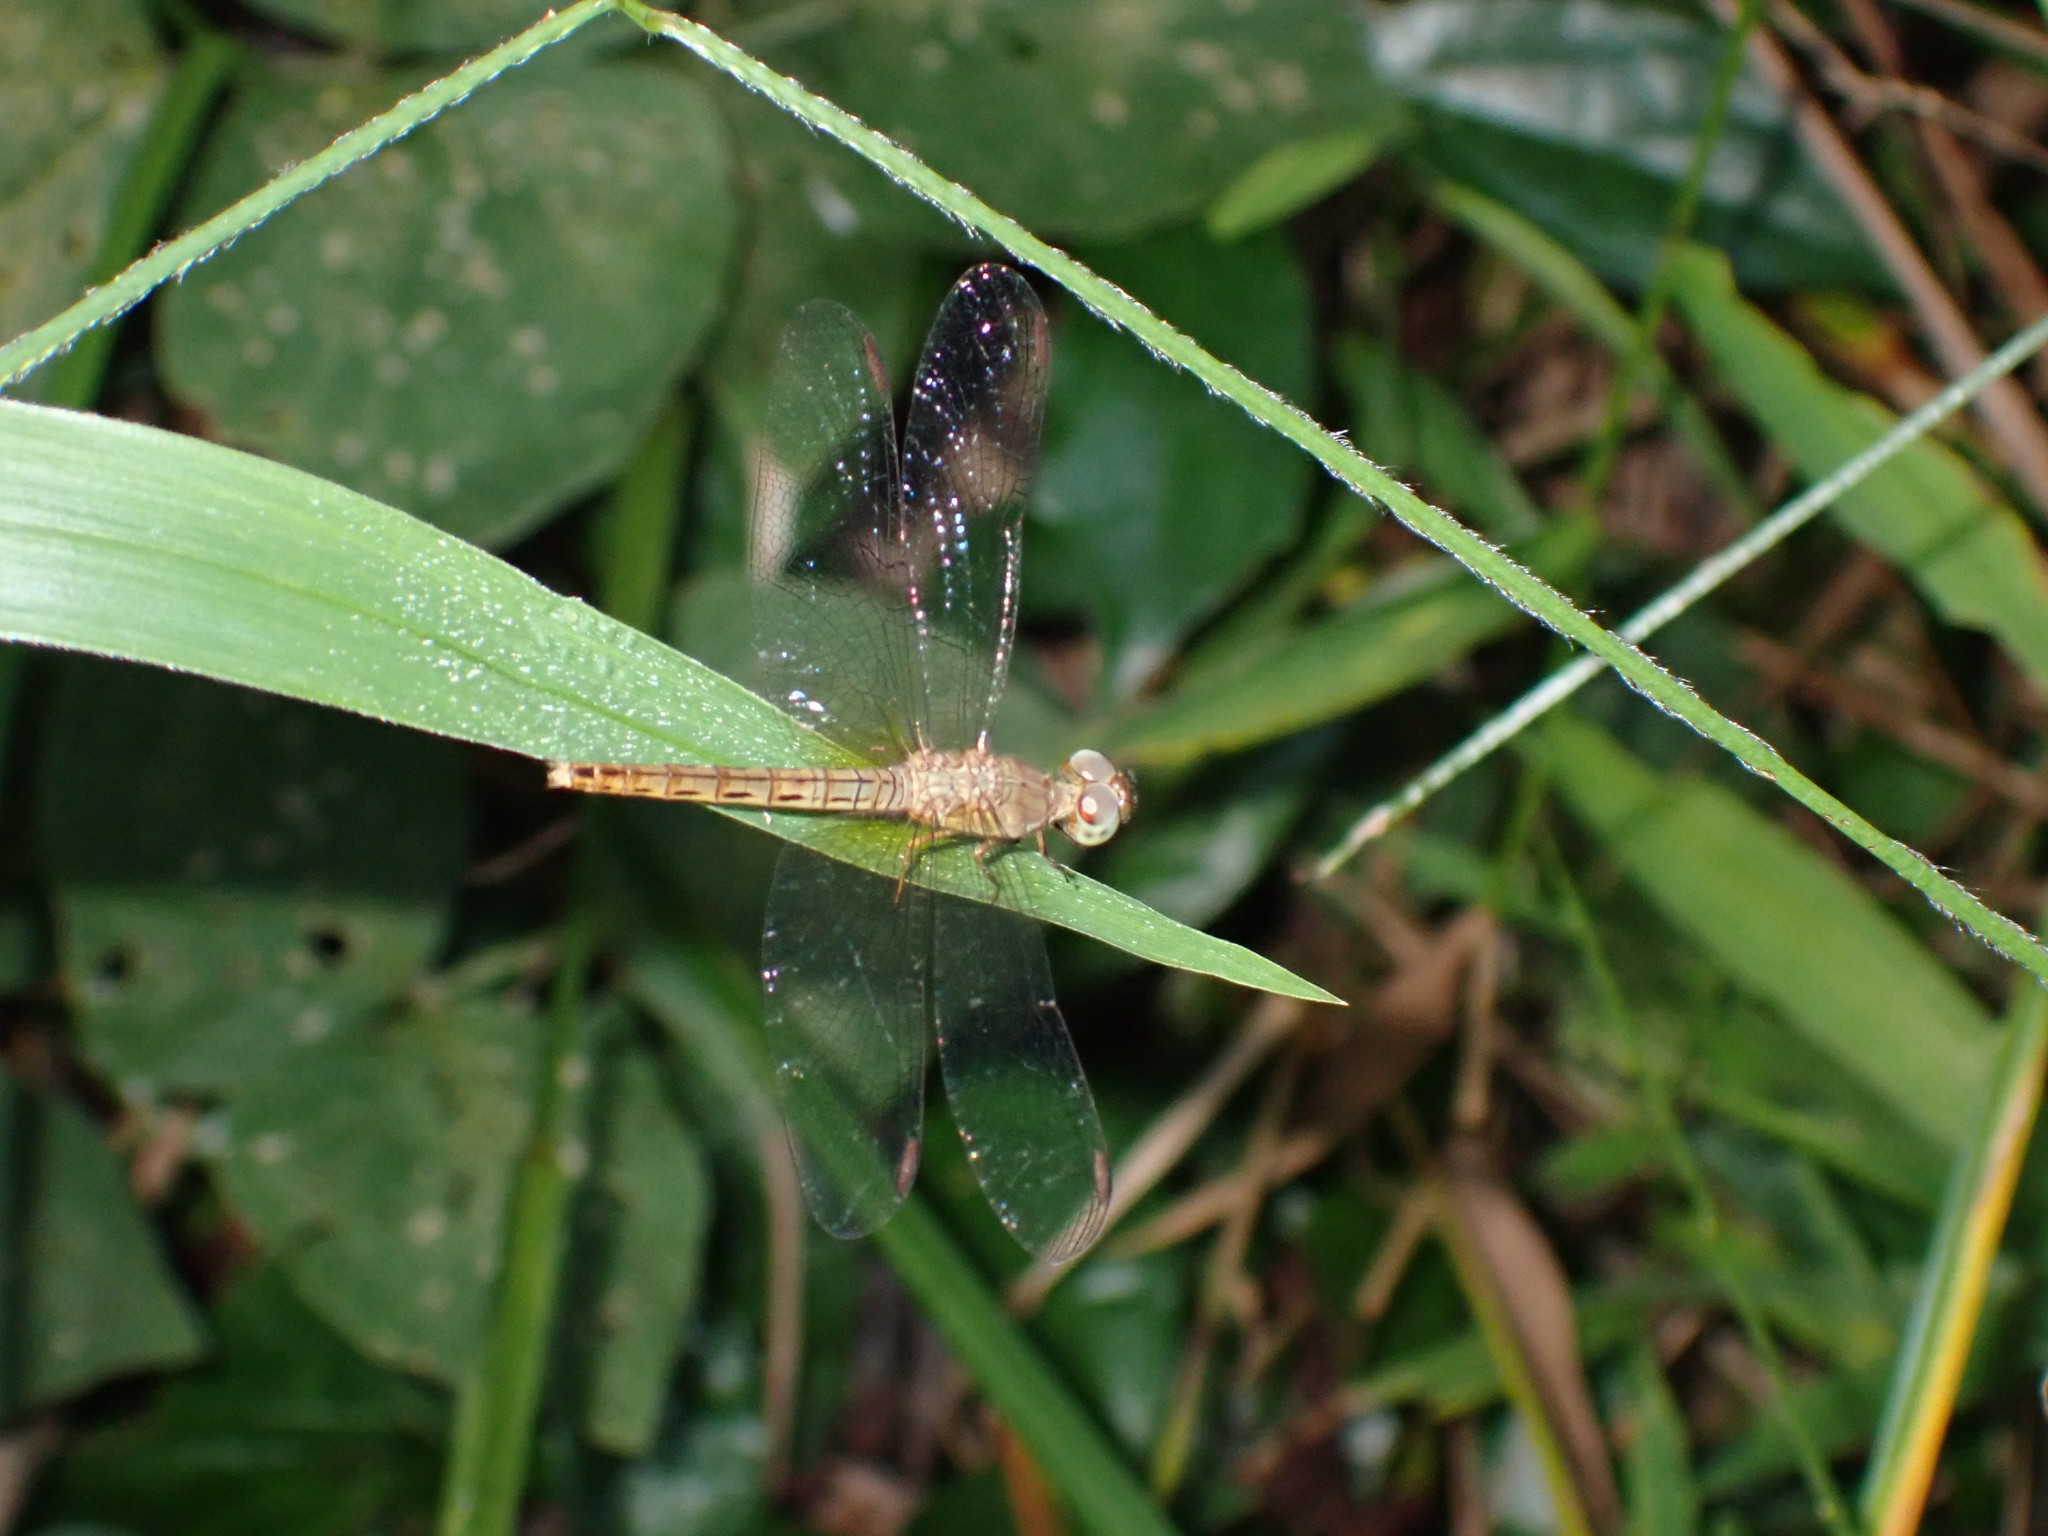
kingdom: Animalia
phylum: Arthropoda
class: Insecta
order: Odonata
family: Libellulidae
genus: Neurothemis
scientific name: Neurothemis fluctuans
